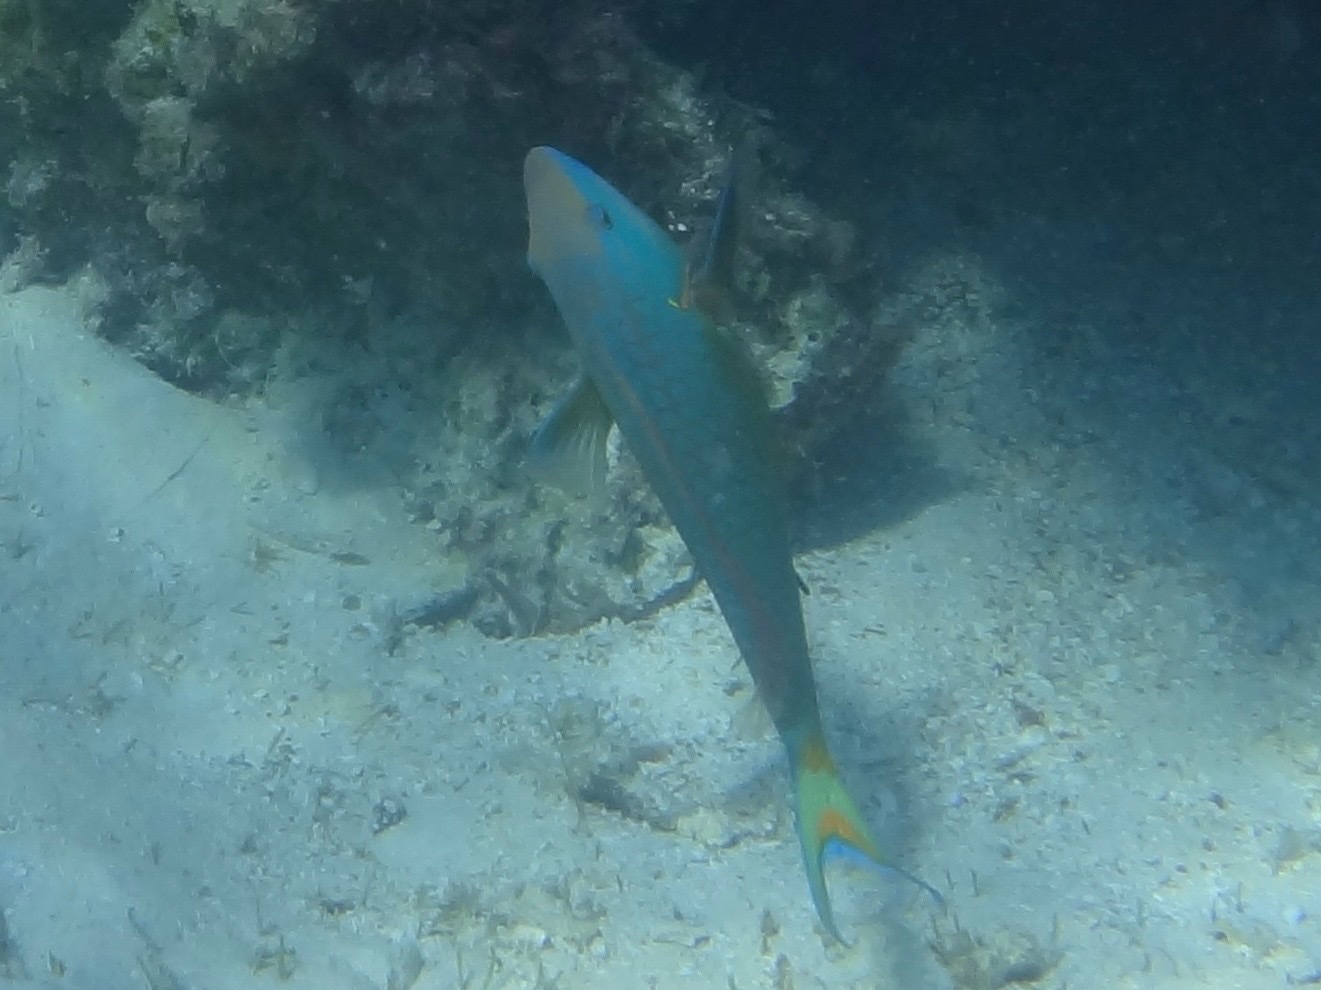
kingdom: Animalia
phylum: Chordata
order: Perciformes
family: Scaridae
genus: Sparisoma
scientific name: Sparisoma viride
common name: Stoplight parrotfish
